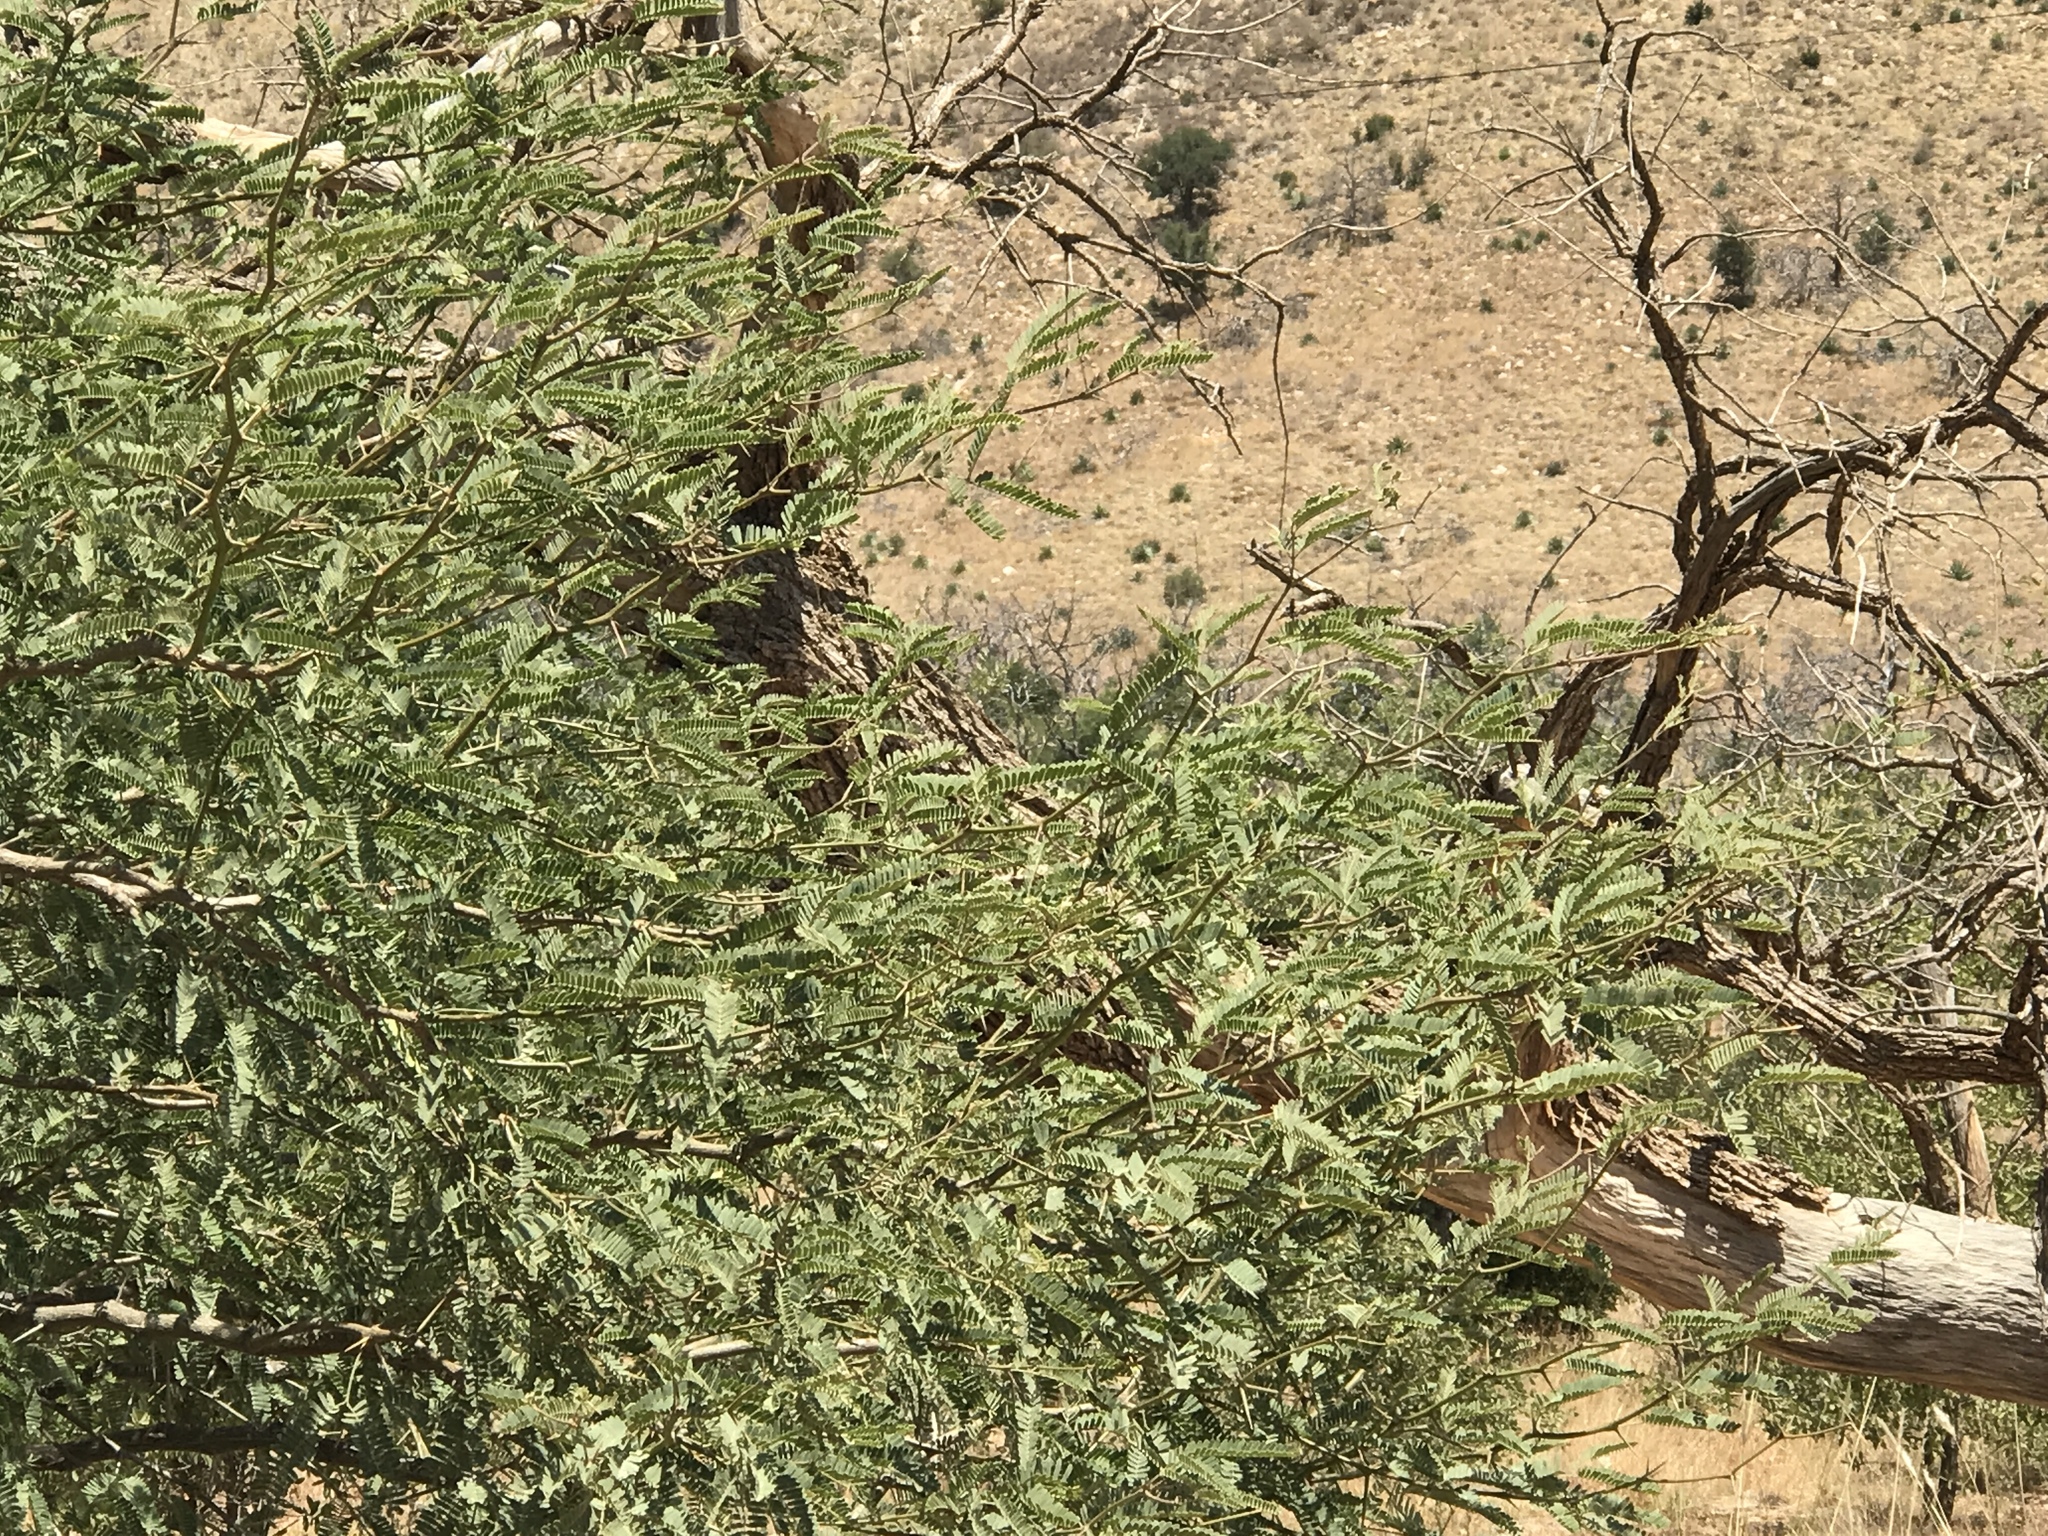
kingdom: Plantae
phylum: Tracheophyta
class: Magnoliopsida
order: Fabales
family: Fabaceae
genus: Prosopis
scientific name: Prosopis velutina
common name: Velvet mesquite
